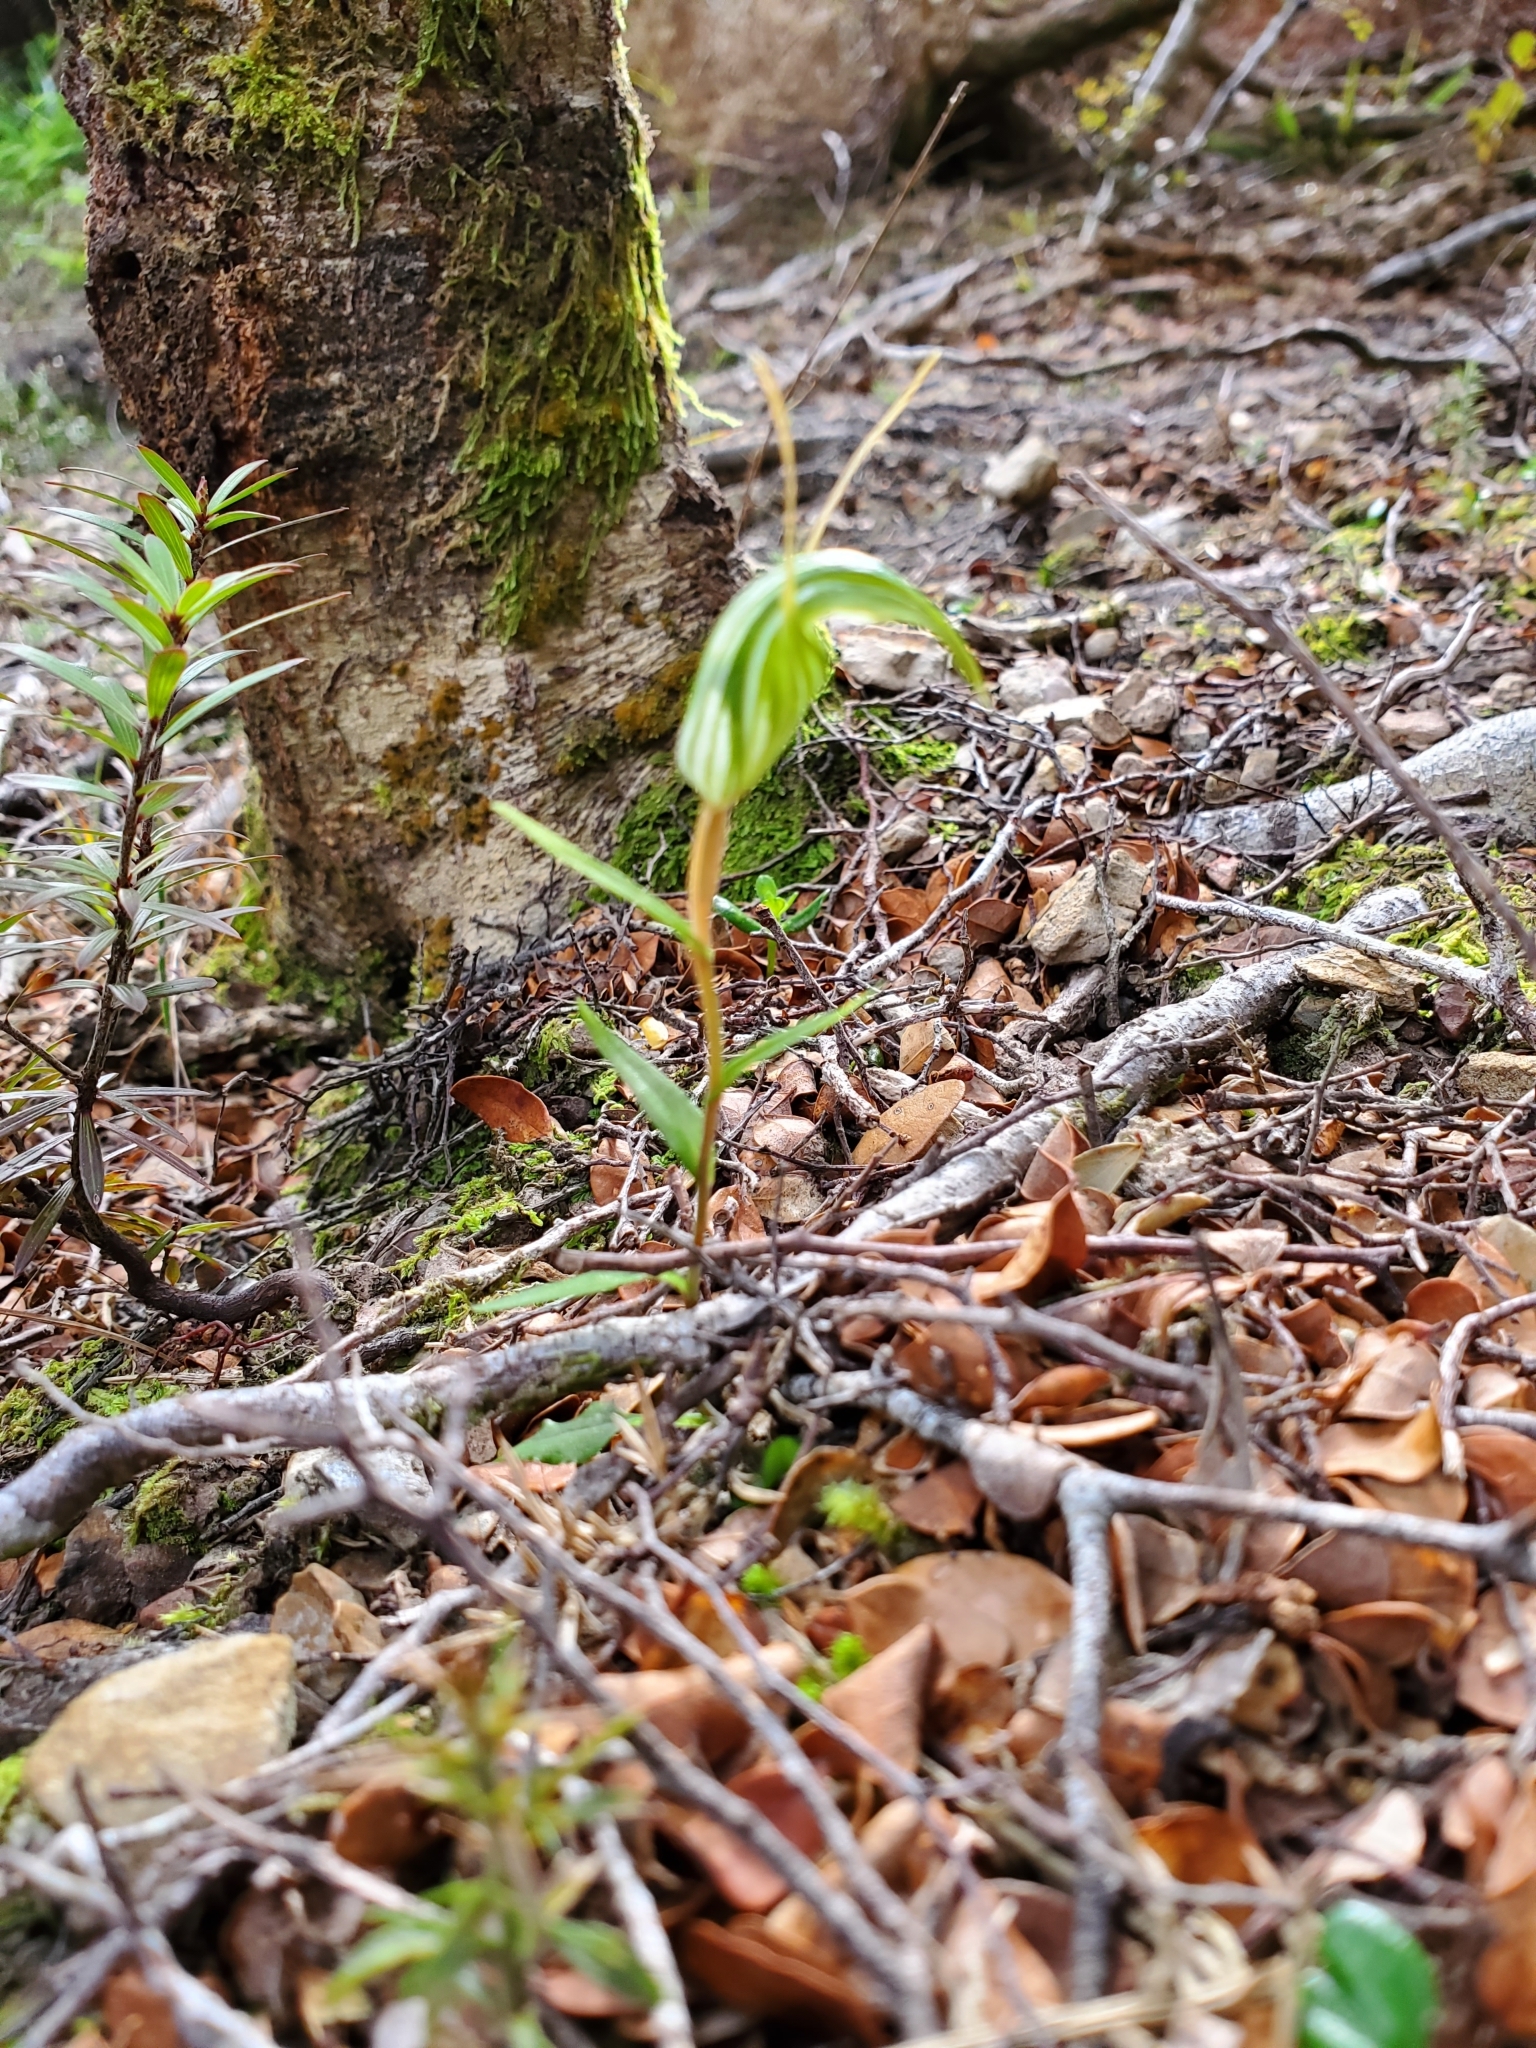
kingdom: Plantae
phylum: Tracheophyta
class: Liliopsida
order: Asparagales
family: Orchidaceae
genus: Pterostylis
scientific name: Pterostylis alobula
